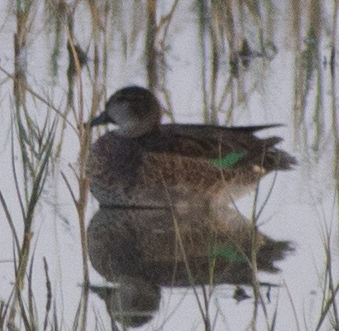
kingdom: Animalia
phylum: Chordata
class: Aves
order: Anseriformes
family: Anatidae
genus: Anas
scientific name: Anas crecca
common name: Eurasian teal
